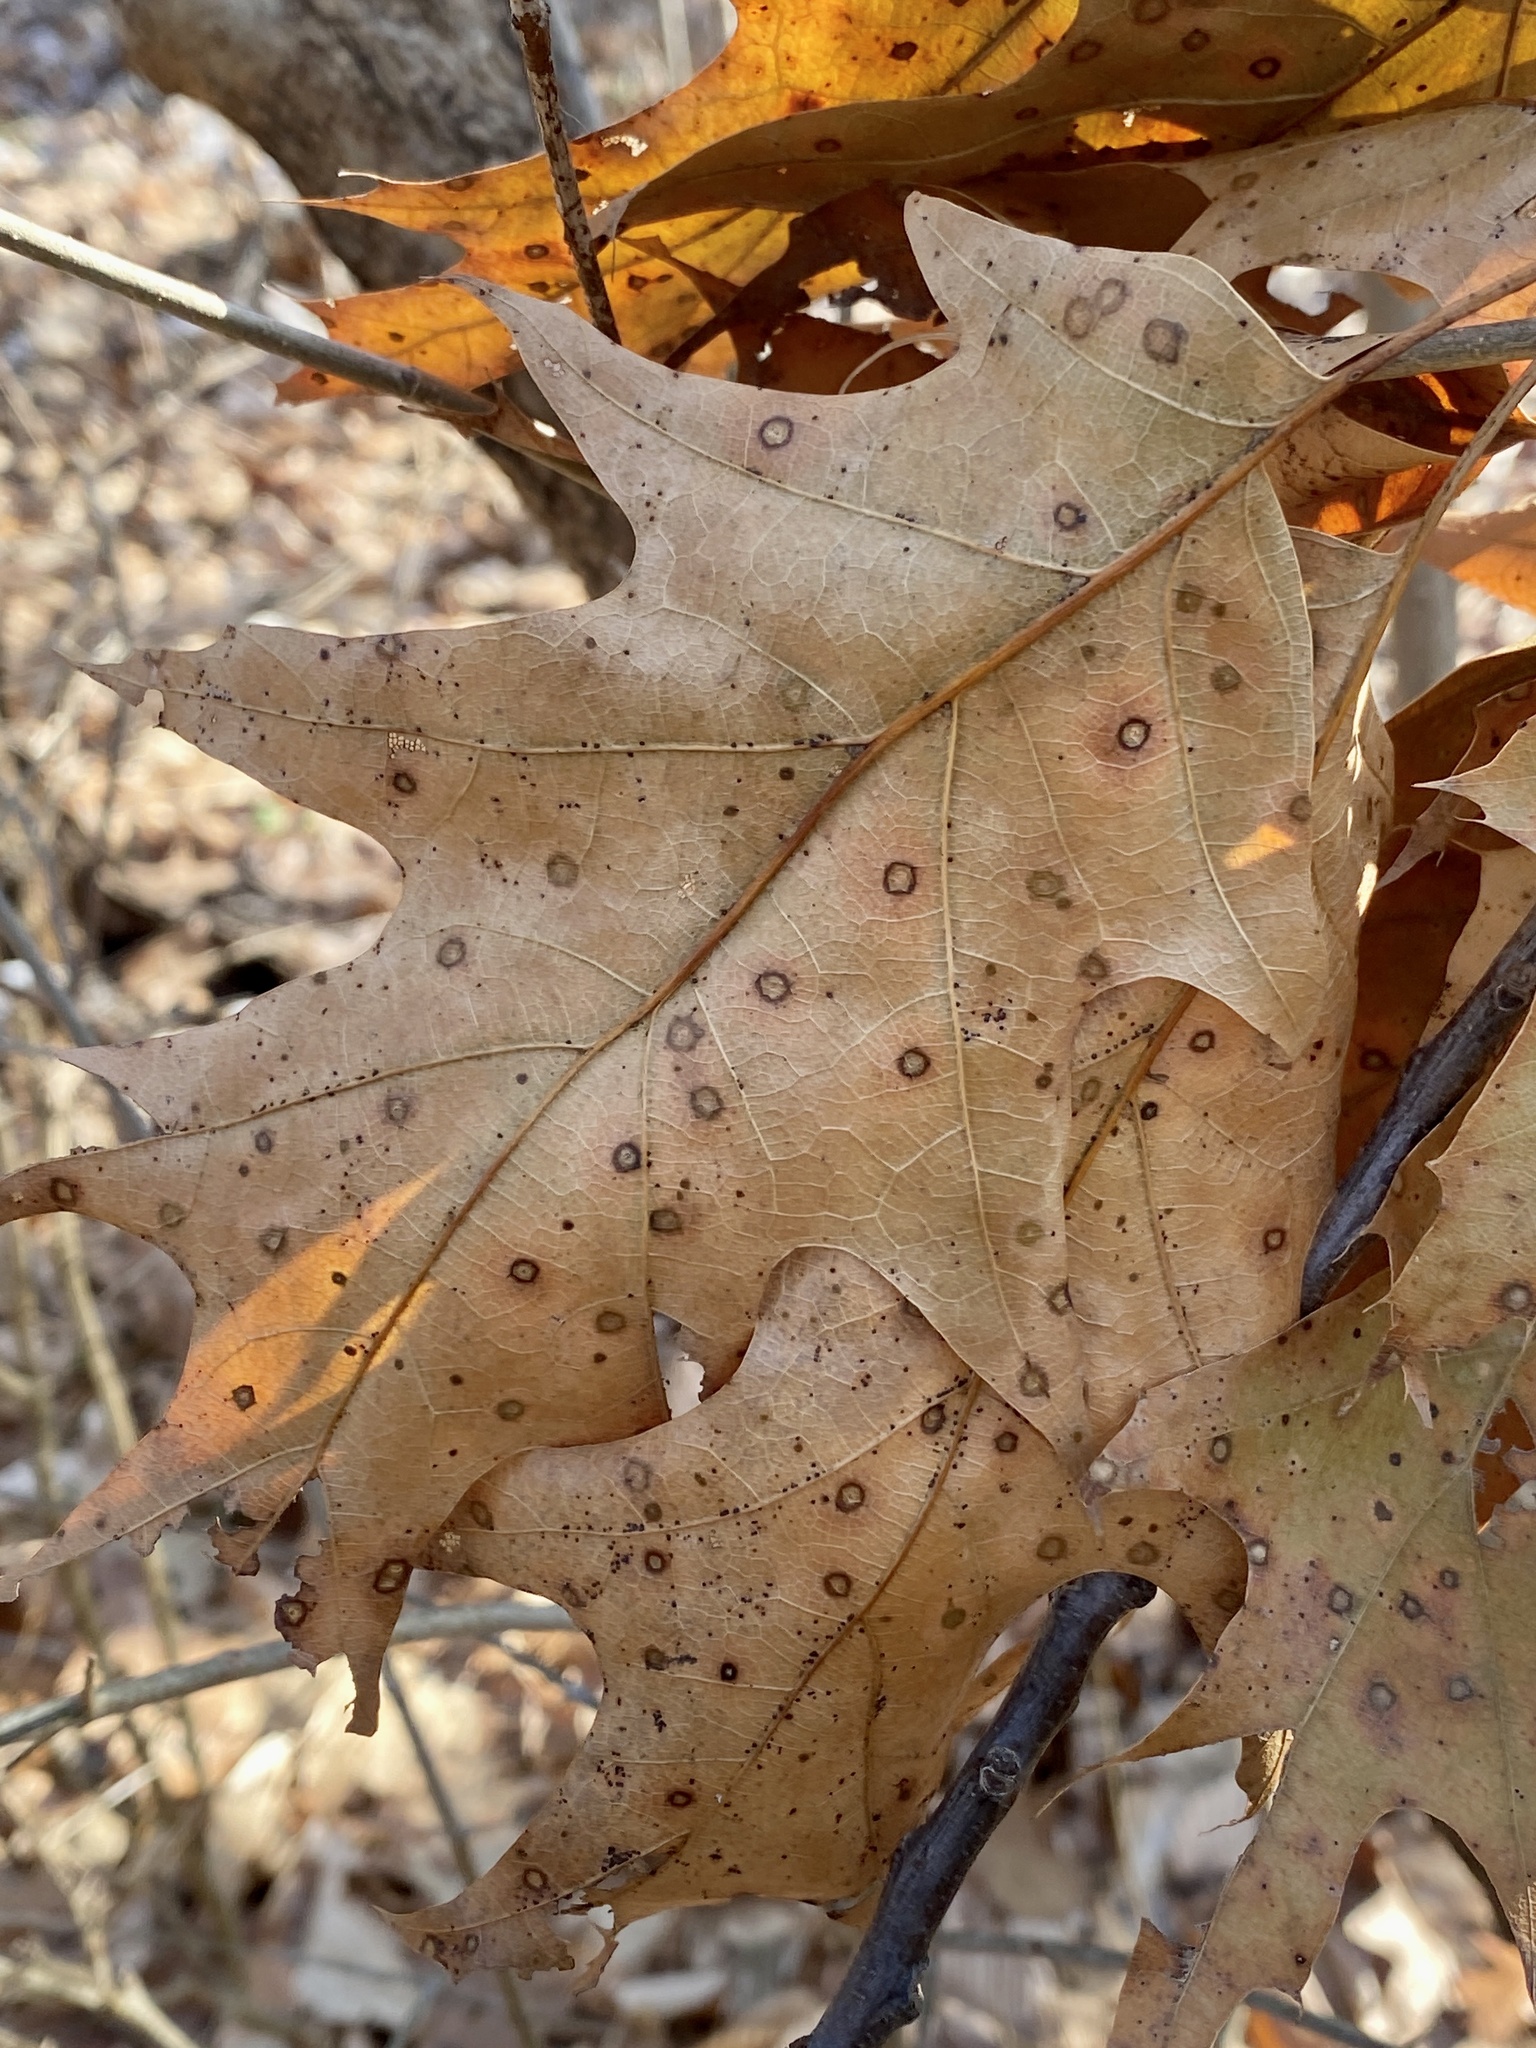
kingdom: Plantae
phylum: Tracheophyta
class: Magnoliopsida
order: Fagales
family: Fagaceae
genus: Quercus
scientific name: Quercus rubra
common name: Red oak
